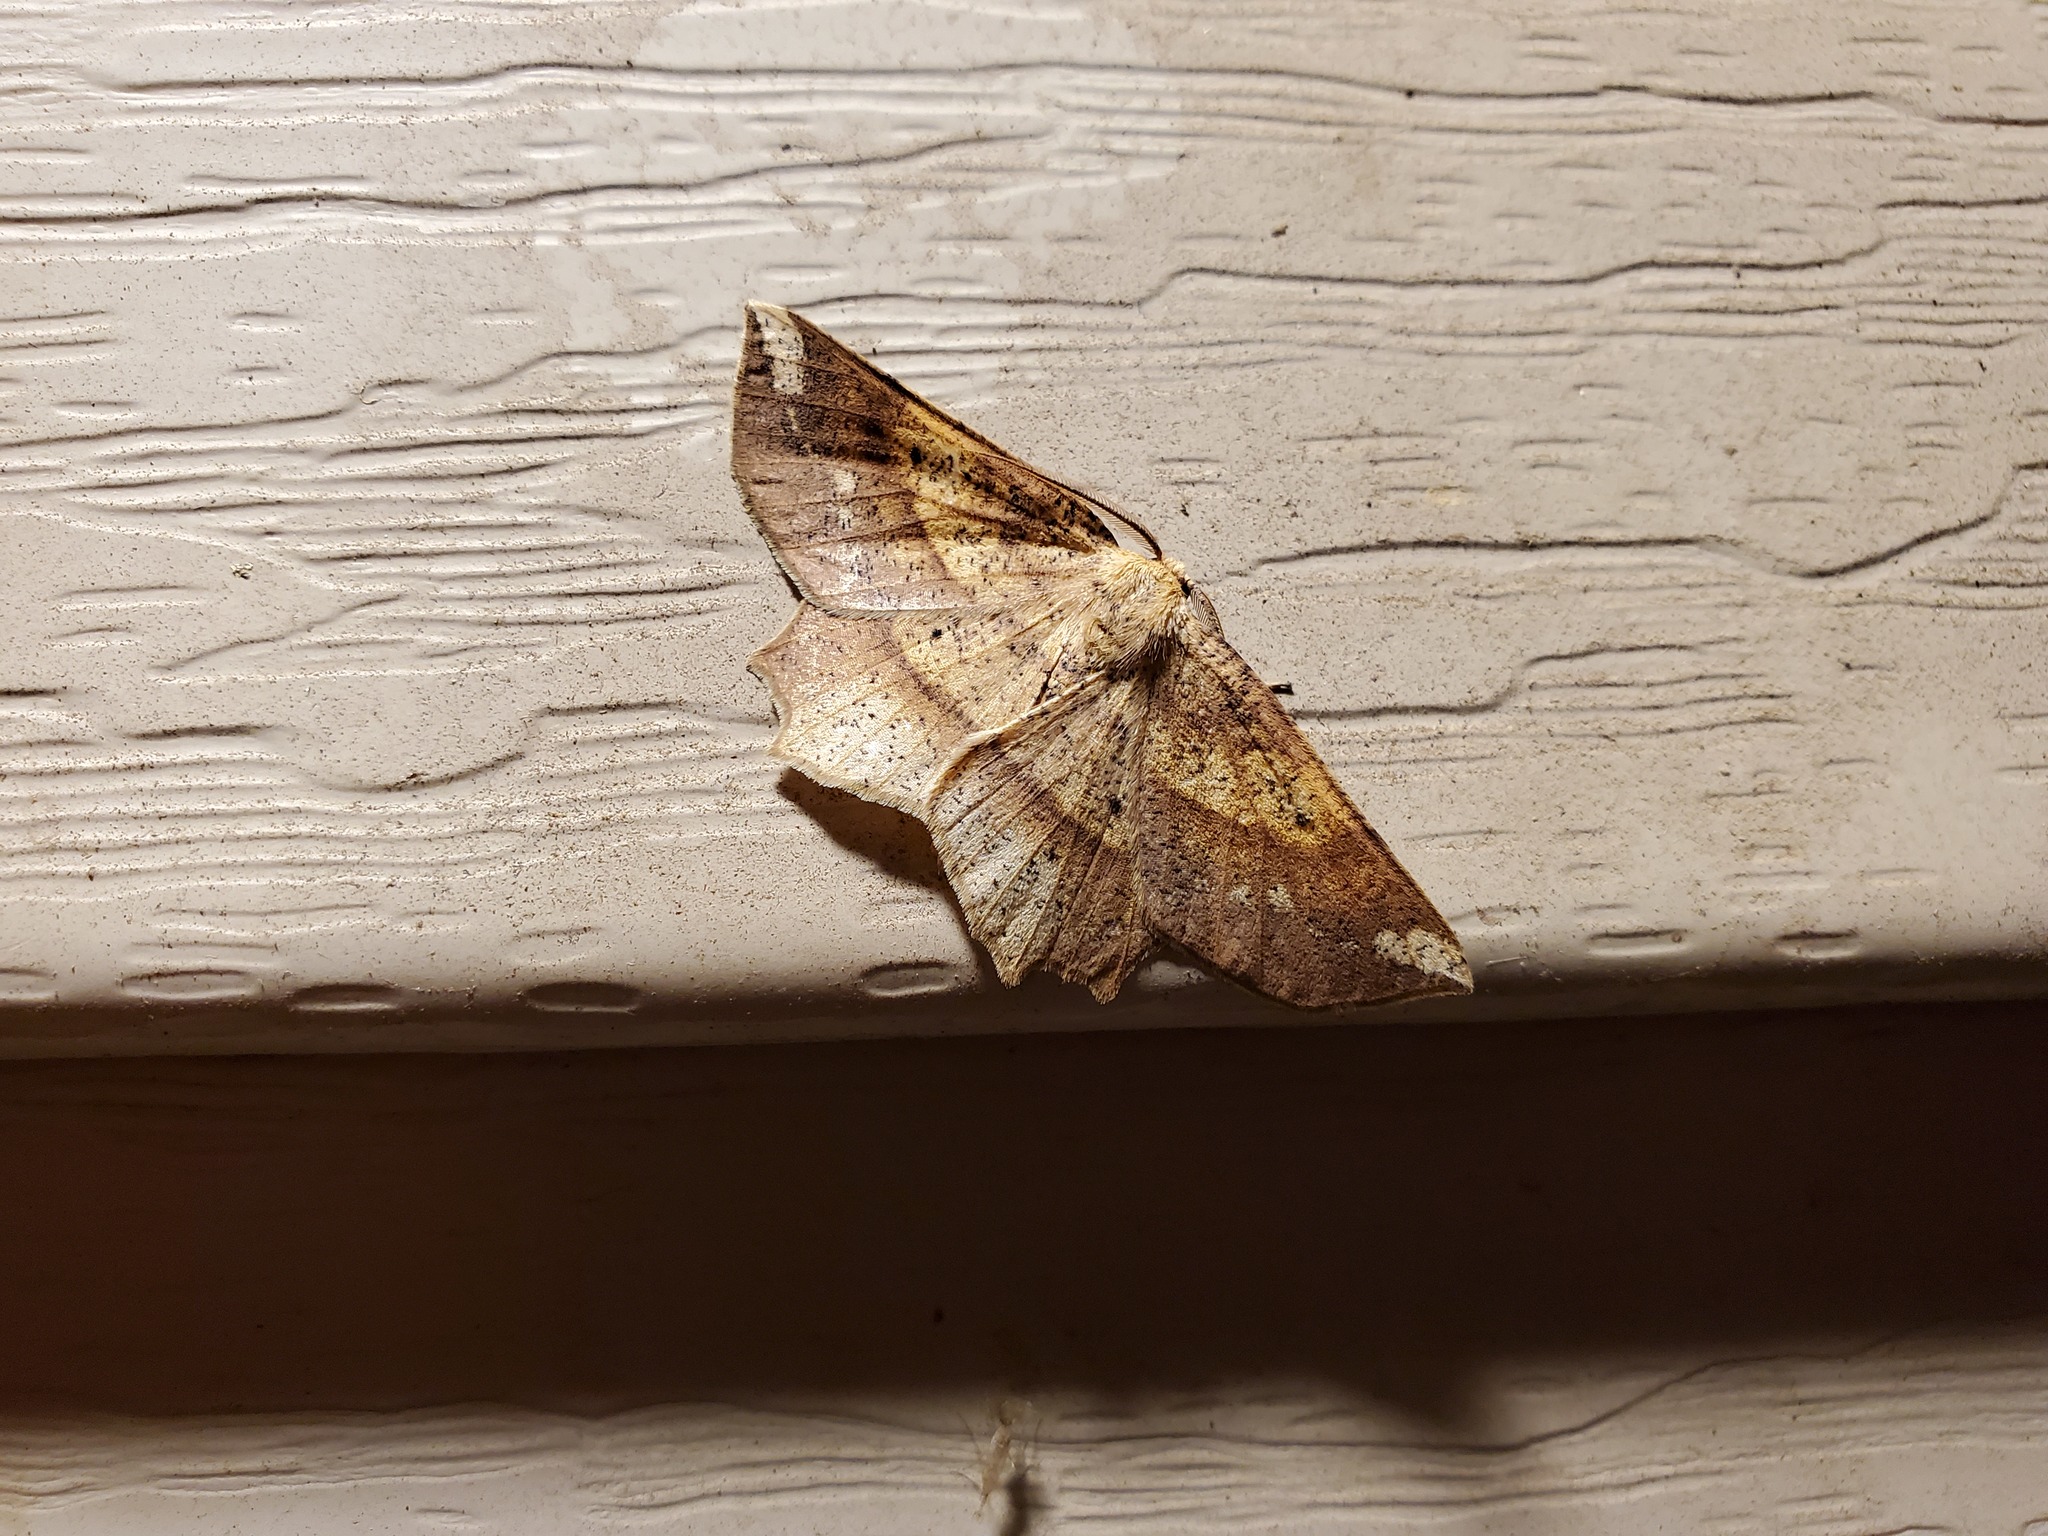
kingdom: Animalia
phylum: Arthropoda
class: Insecta
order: Lepidoptera
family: Geometridae
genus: Euchlaena
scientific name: Euchlaena amoenaria
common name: Deep yellow euchlaena
